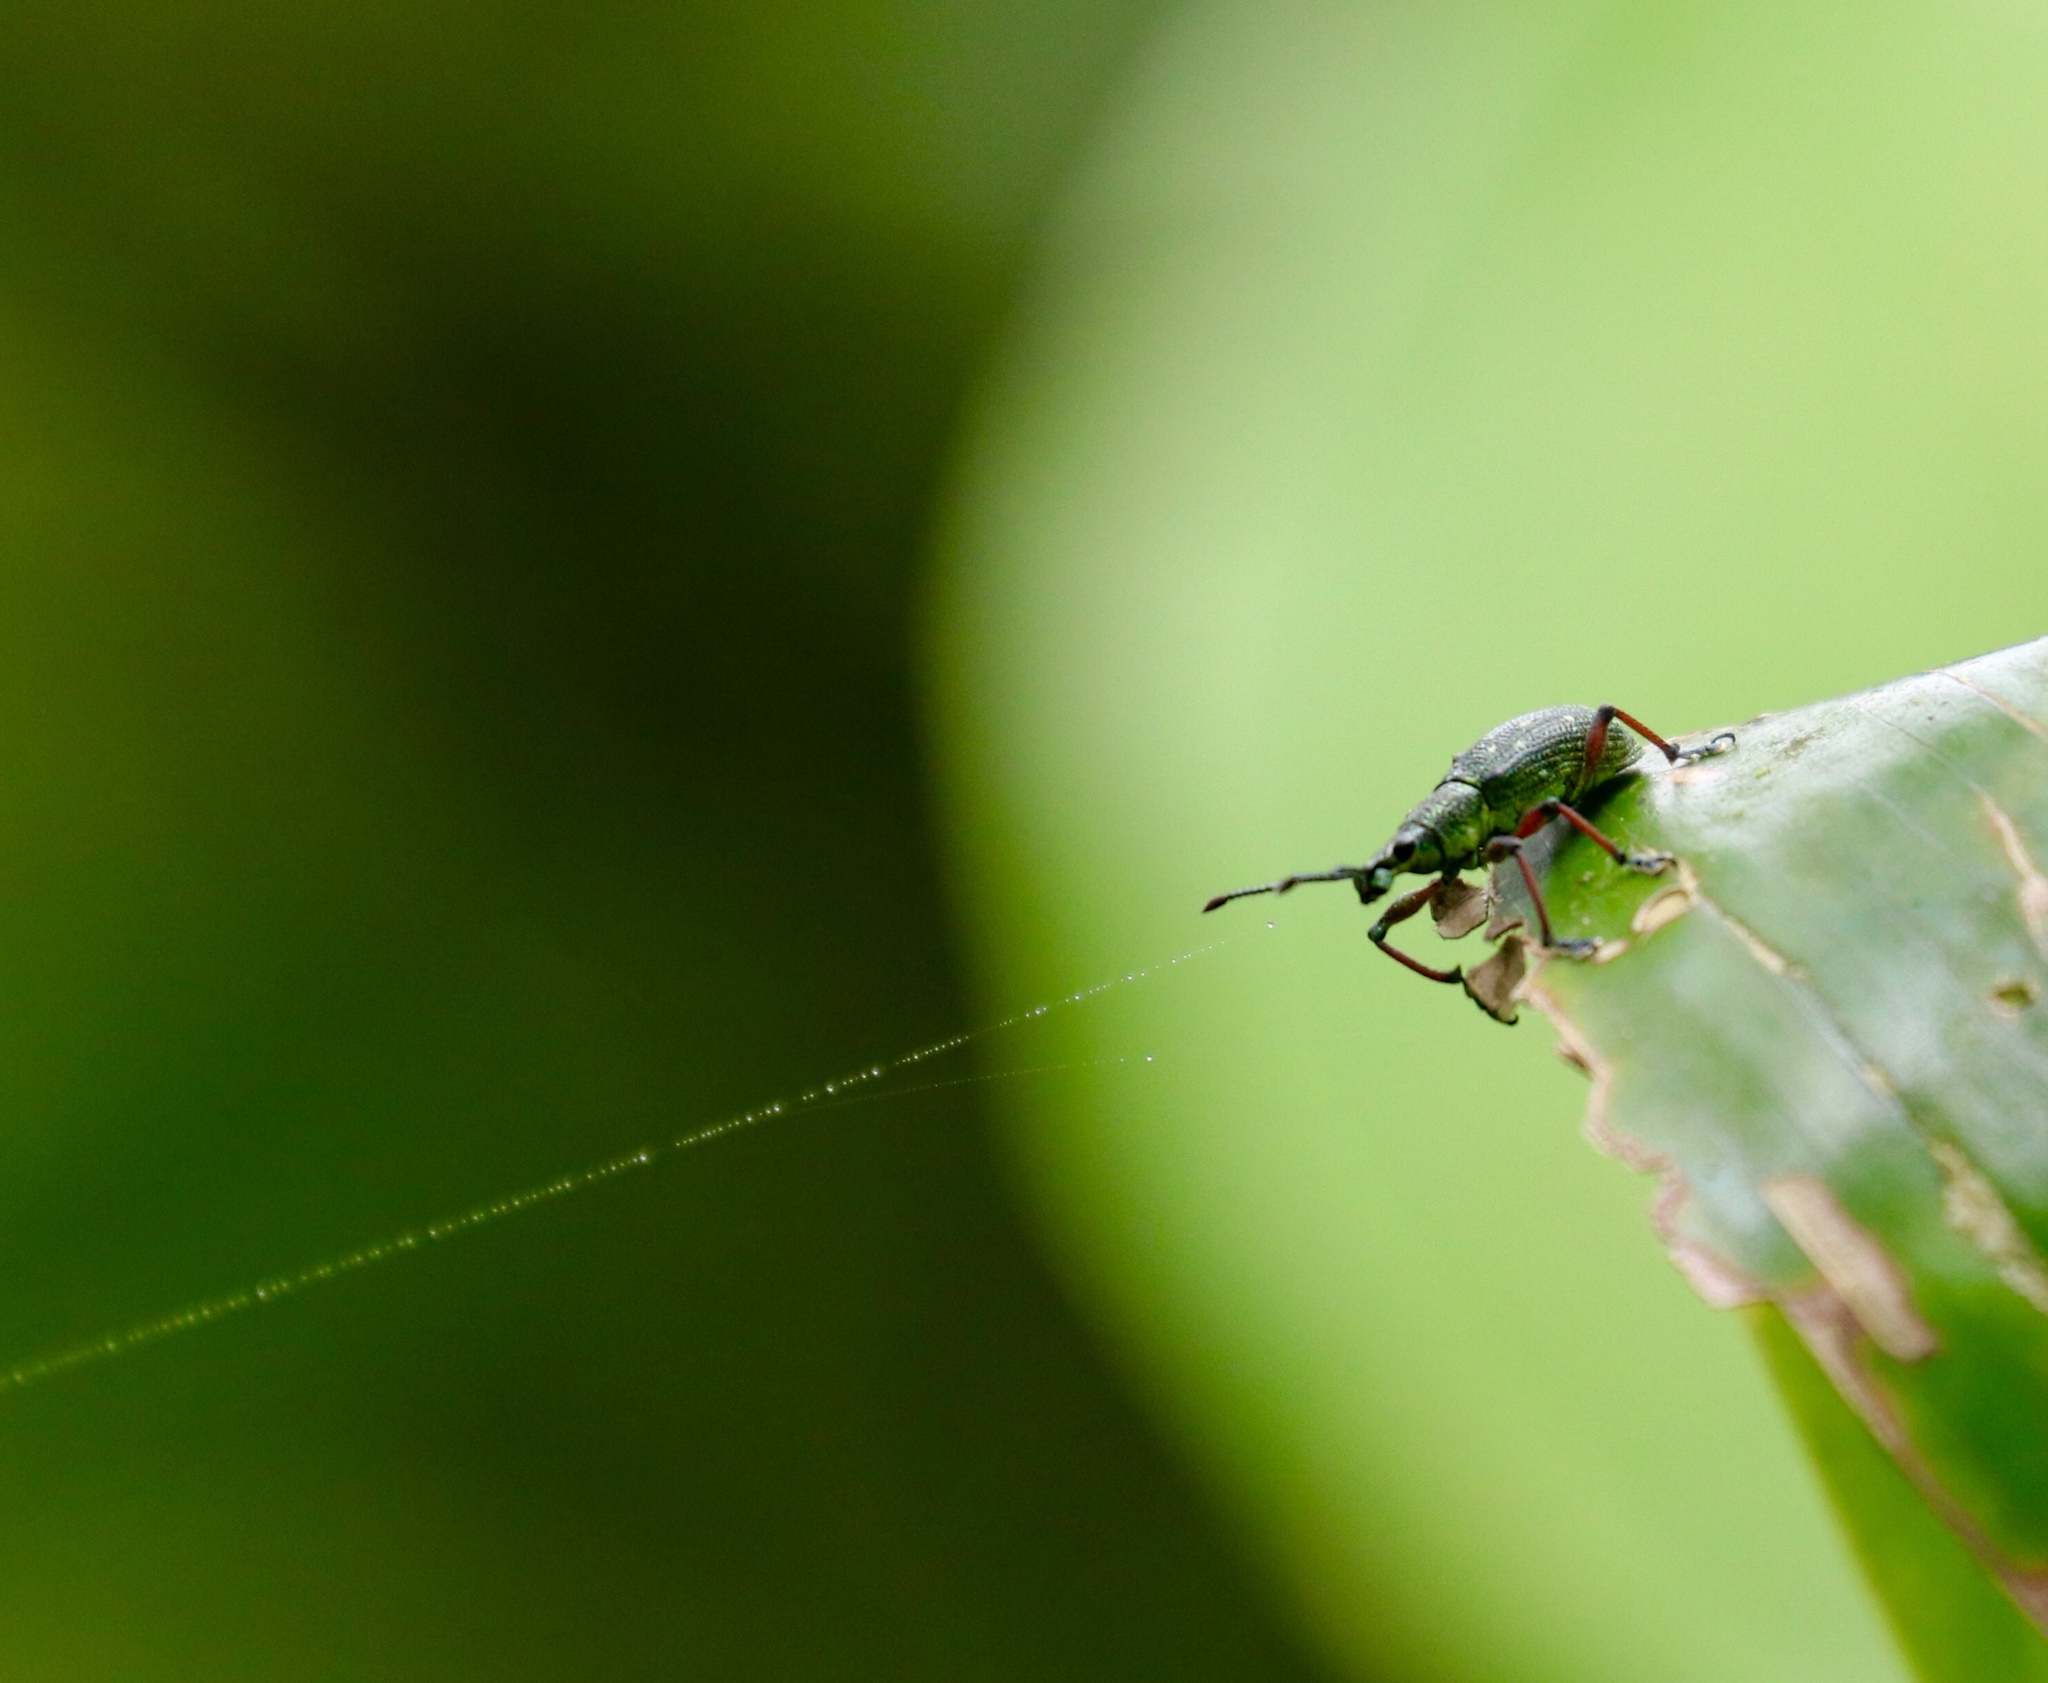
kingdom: Animalia
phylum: Arthropoda
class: Insecta
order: Coleoptera
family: Curculionidae
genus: Exophthalmus
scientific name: Exophthalmus jekelianus
